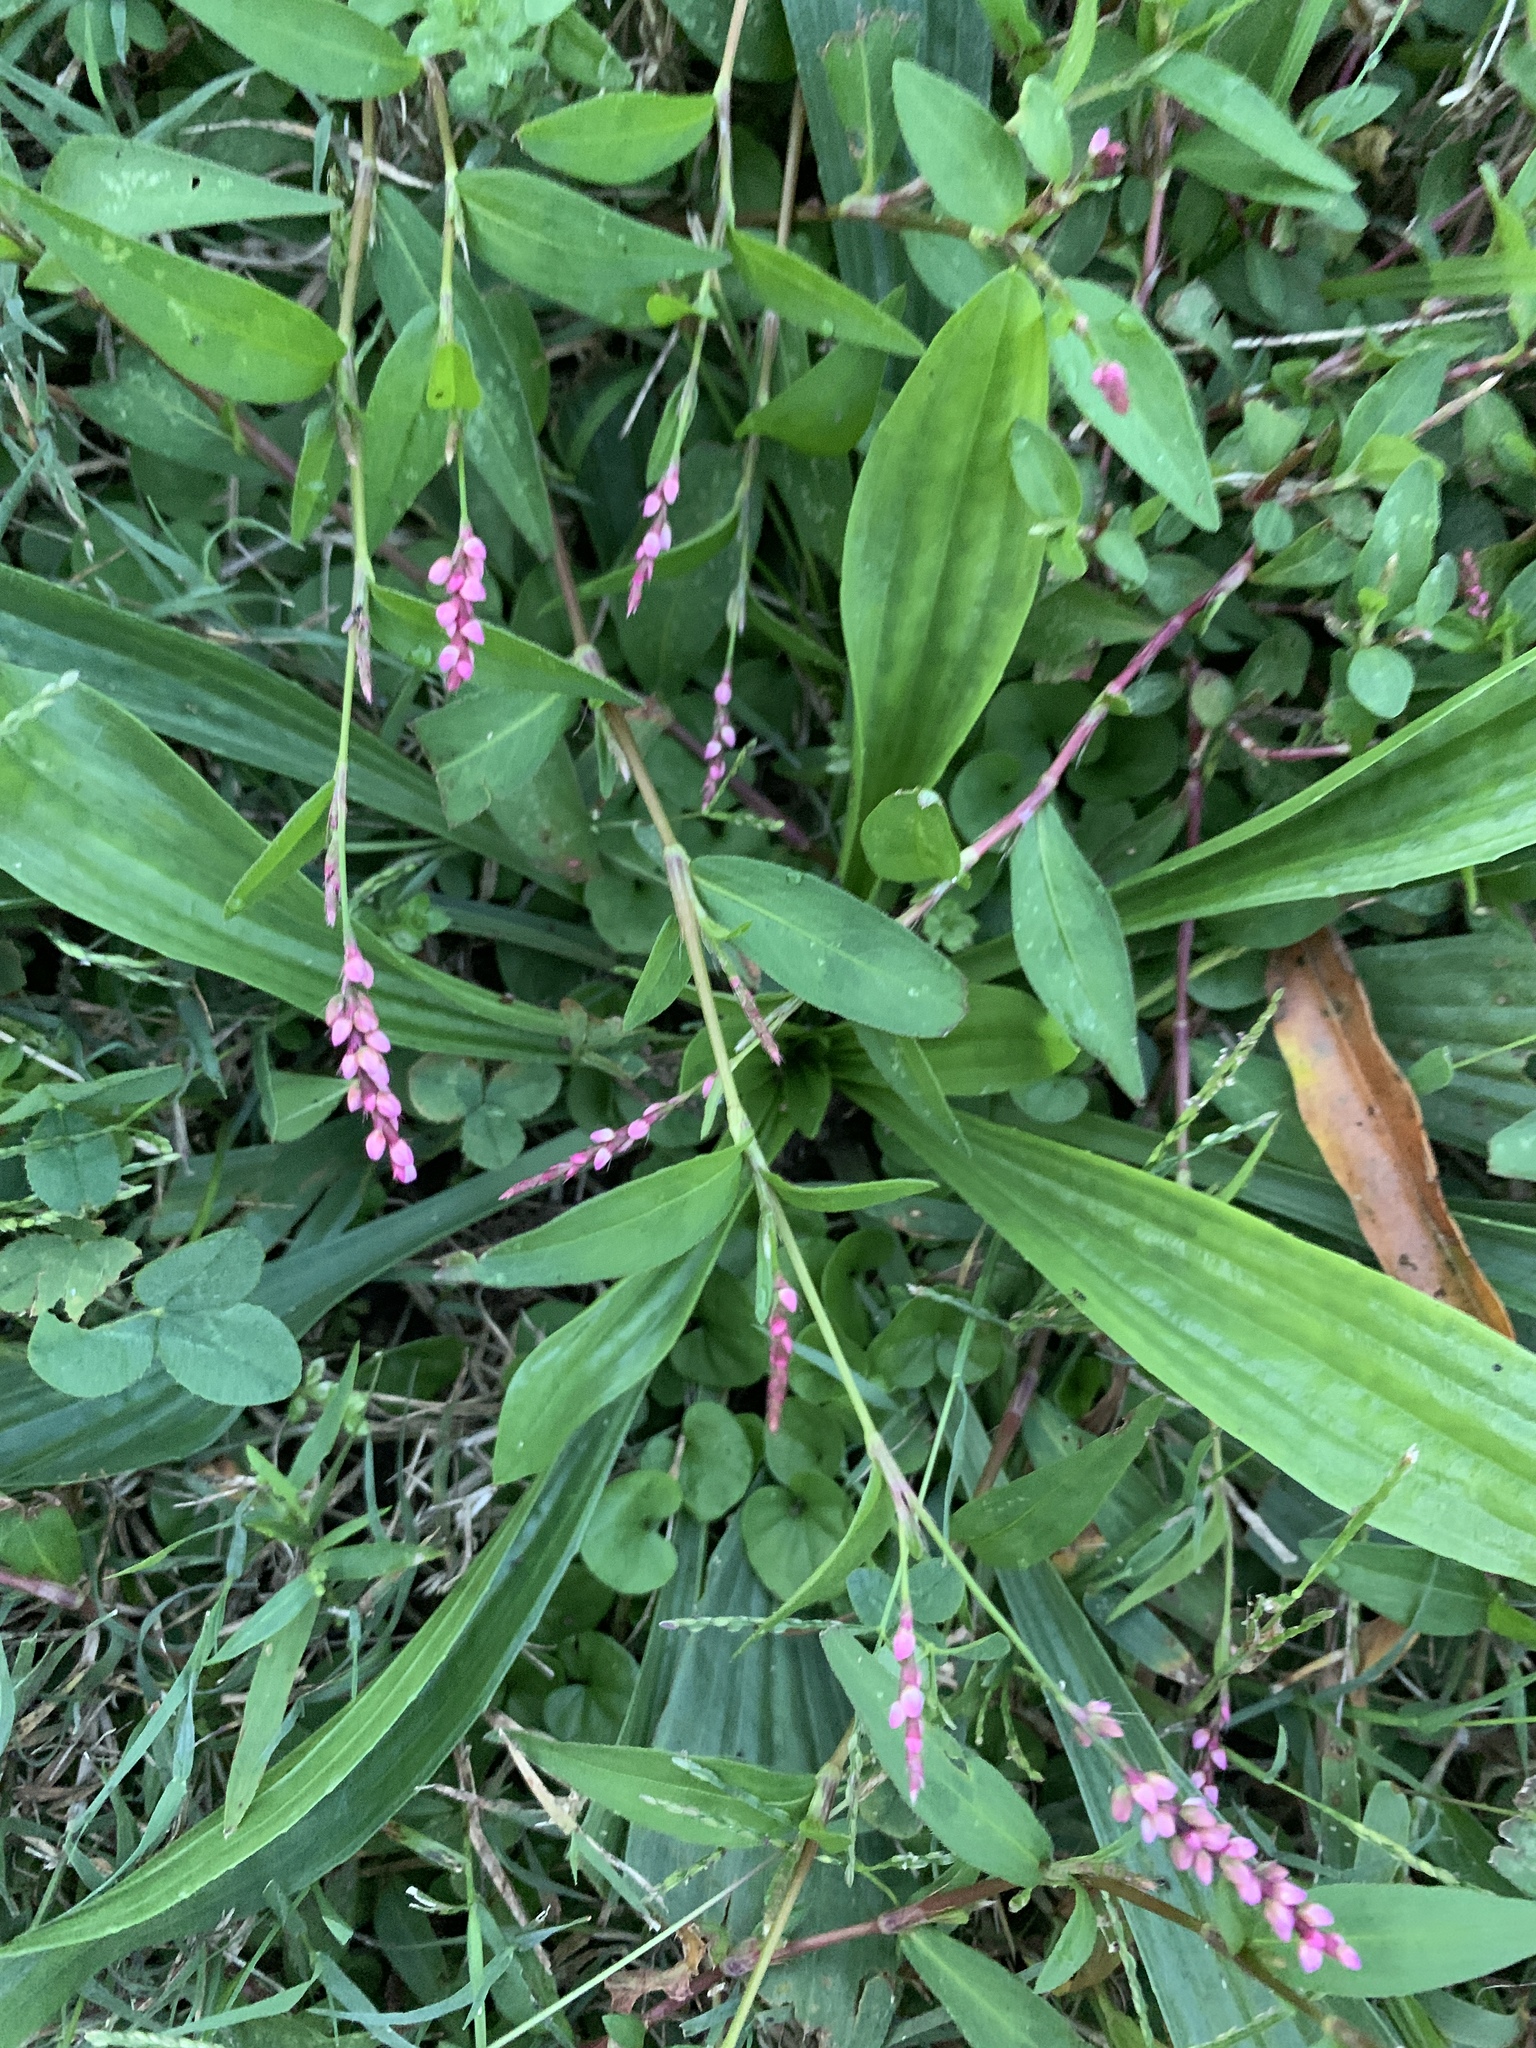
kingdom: Plantae
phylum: Tracheophyta
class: Magnoliopsida
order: Caryophyllales
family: Polygonaceae
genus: Persicaria
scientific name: Persicaria longiseta
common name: Bristly lady's-thumb
